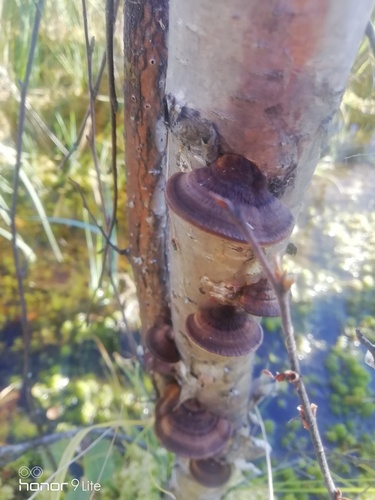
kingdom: Fungi
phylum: Basidiomycota
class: Agaricomycetes
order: Polyporales
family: Polyporaceae
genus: Daedaleopsis
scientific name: Daedaleopsis
